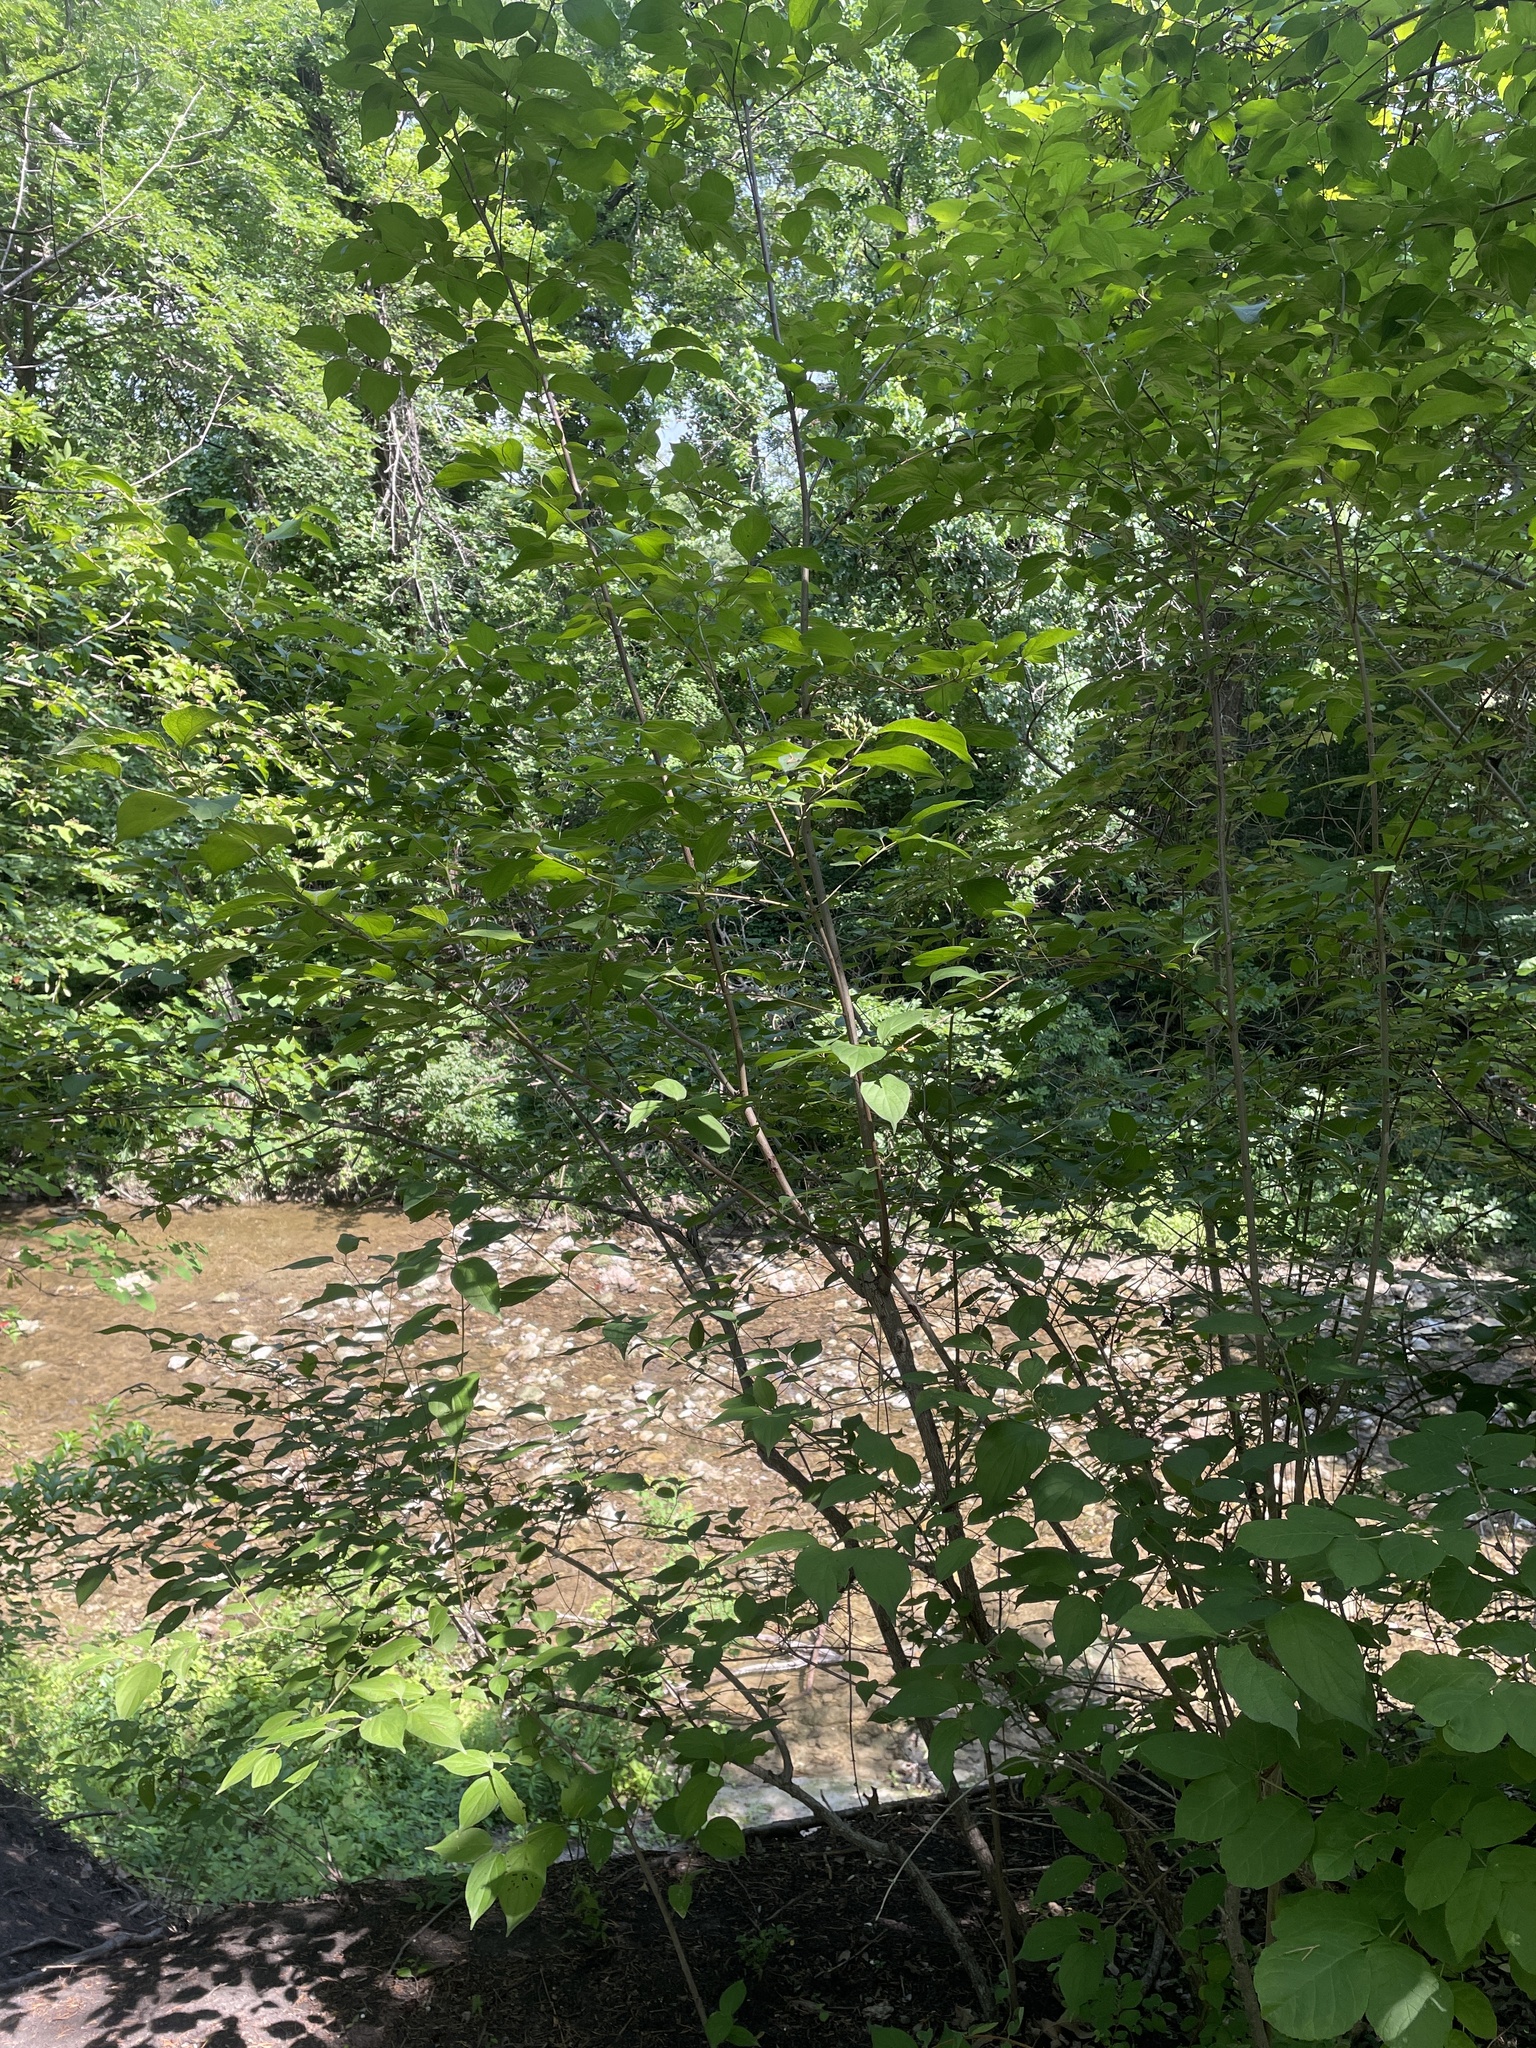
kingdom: Plantae
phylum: Tracheophyta
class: Magnoliopsida
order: Cornales
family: Cornaceae
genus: Cornus
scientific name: Cornus drummondii
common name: Rough-leaf dogwood
